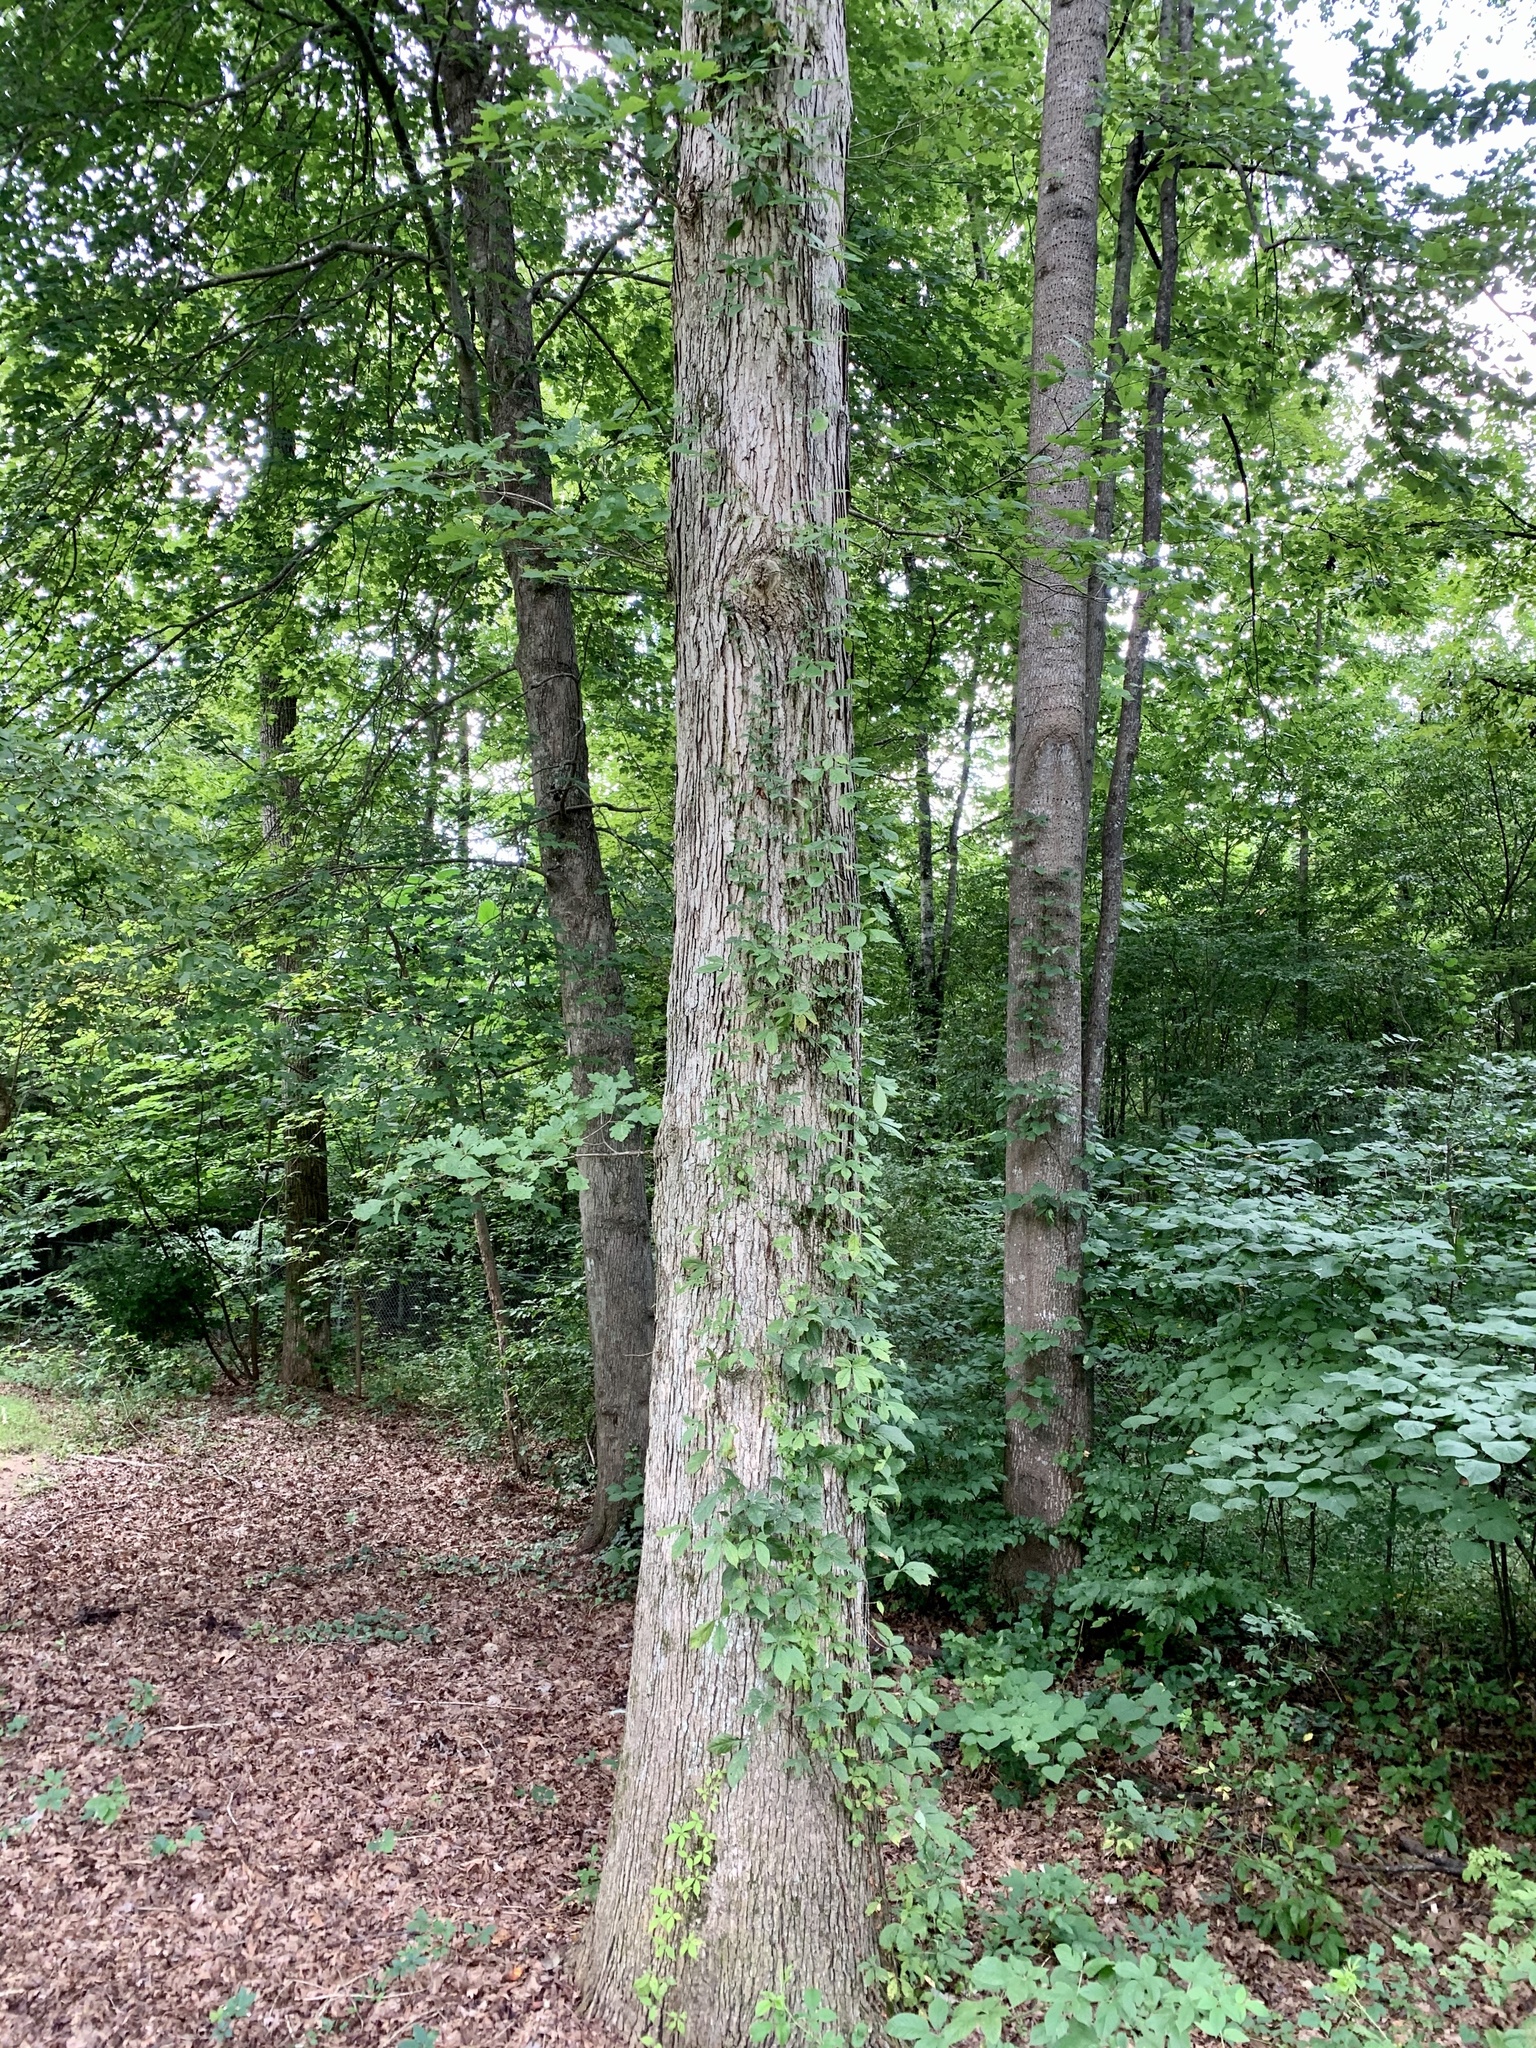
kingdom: Plantae
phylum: Tracheophyta
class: Magnoliopsida
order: Fagales
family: Fagaceae
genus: Quercus
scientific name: Quercus alba
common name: White oak
